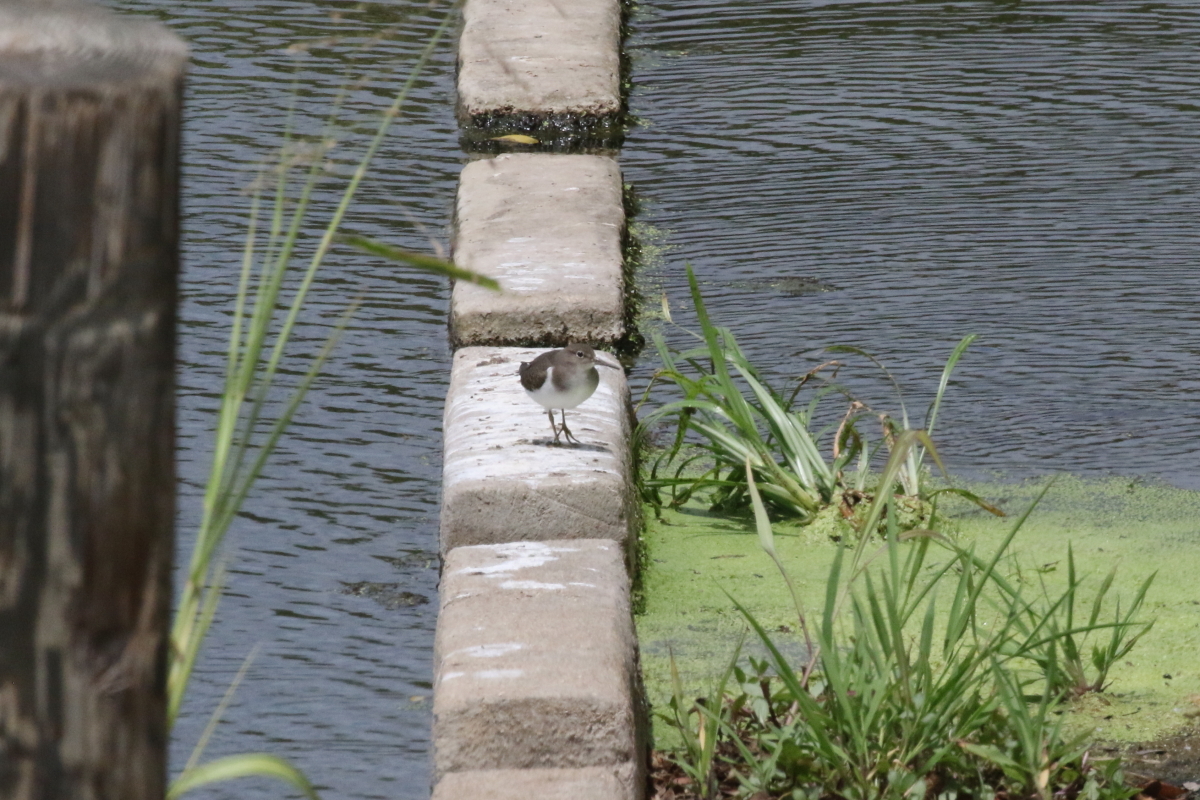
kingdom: Animalia
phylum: Chordata
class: Aves
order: Charadriiformes
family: Scolopacidae
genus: Actitis
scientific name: Actitis macularius
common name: Spotted sandpiper
